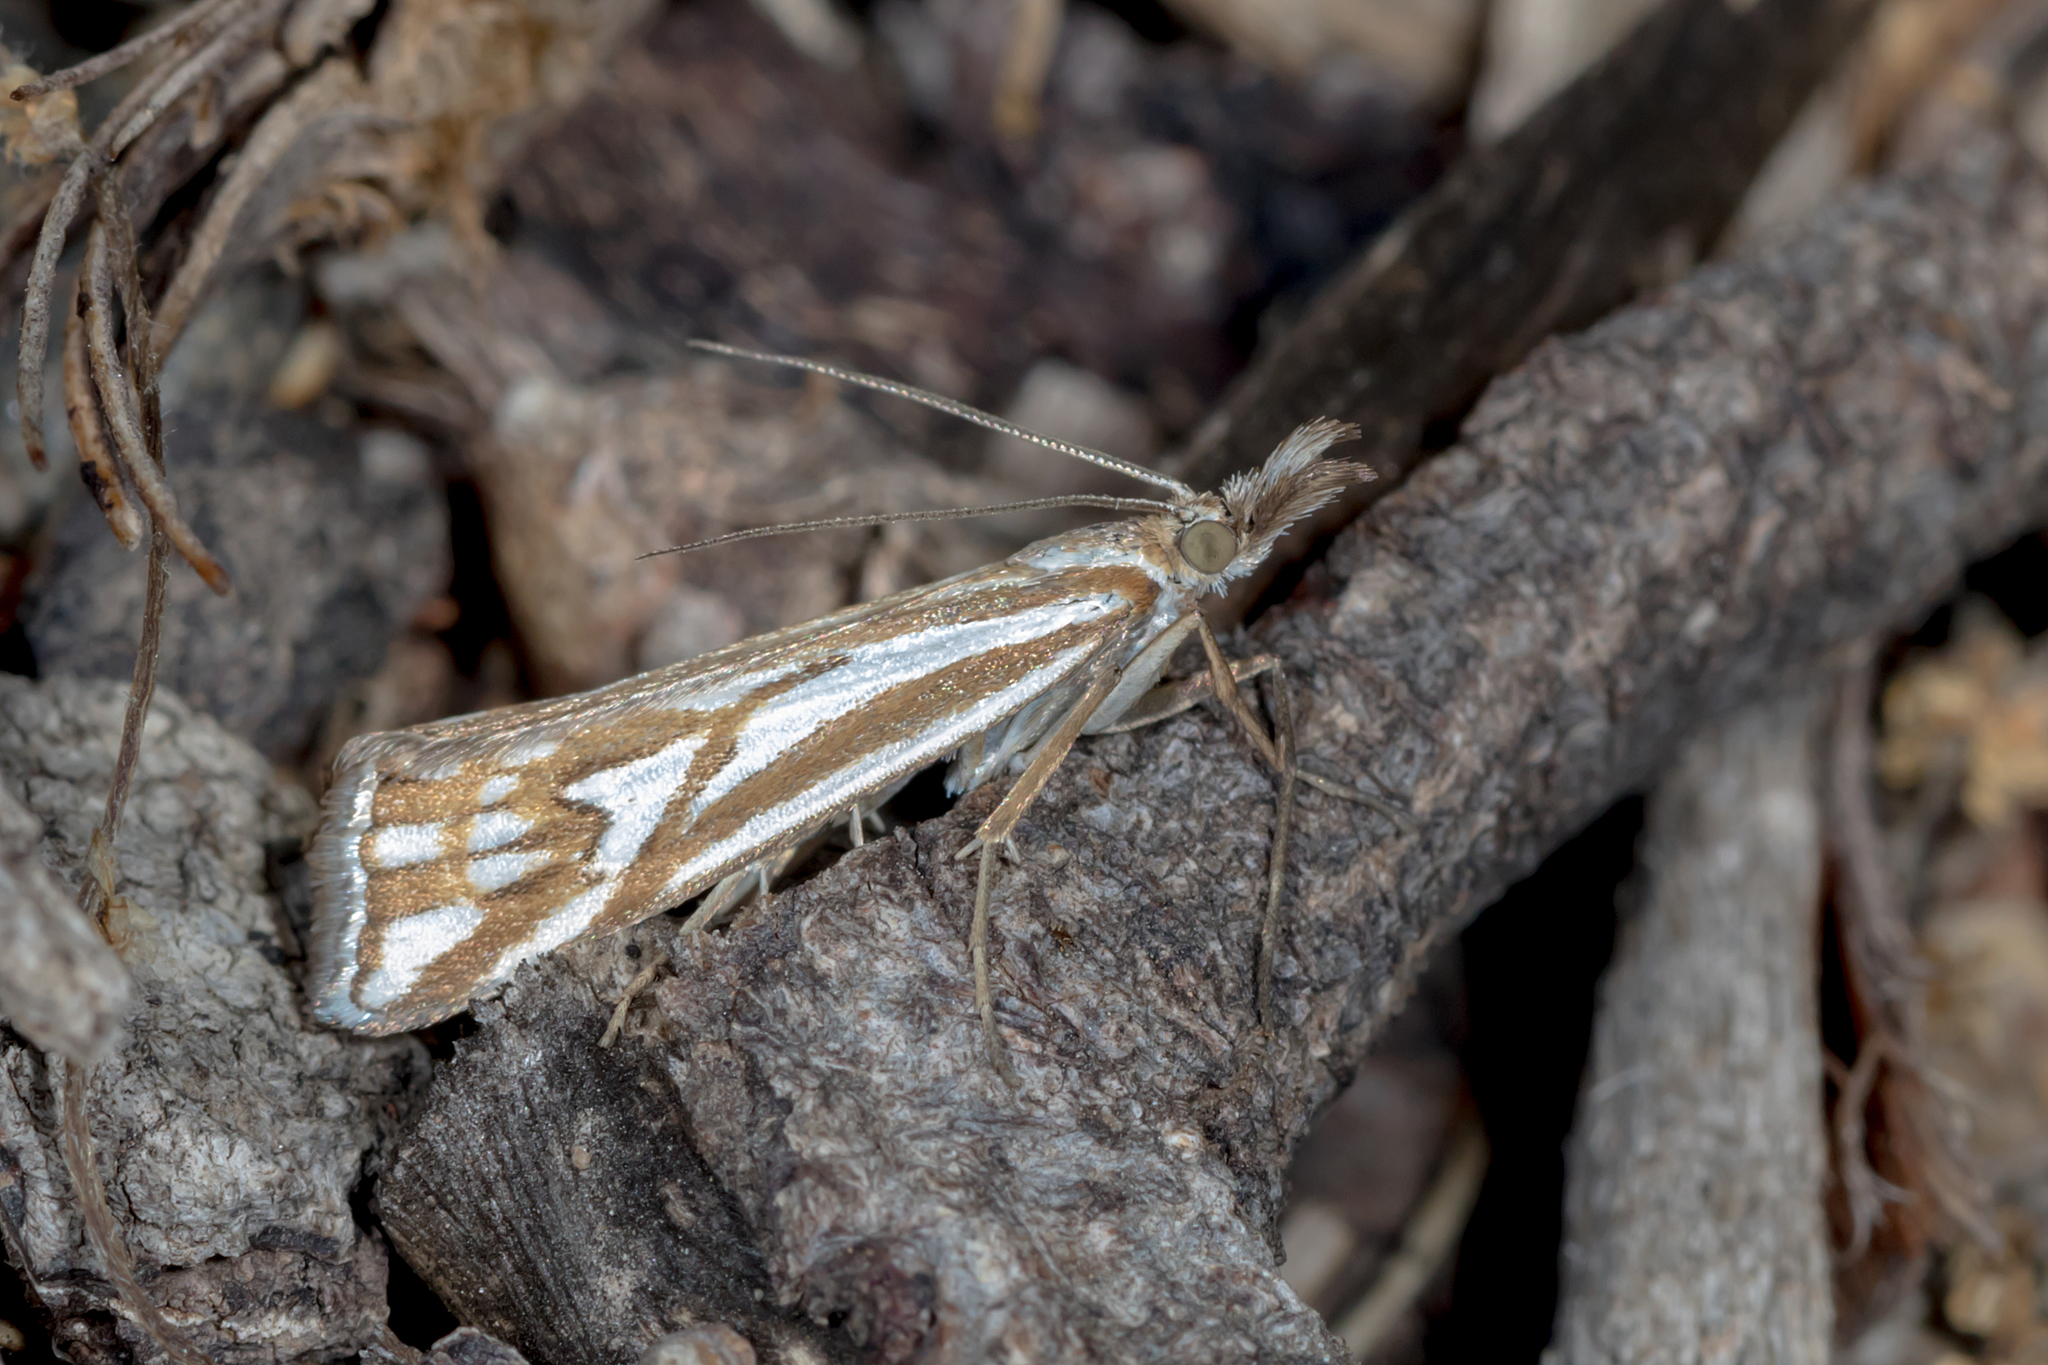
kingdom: Animalia
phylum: Arthropoda
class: Insecta
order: Lepidoptera
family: Crambidae
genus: Hednota
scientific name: Hednota pleniferellus
